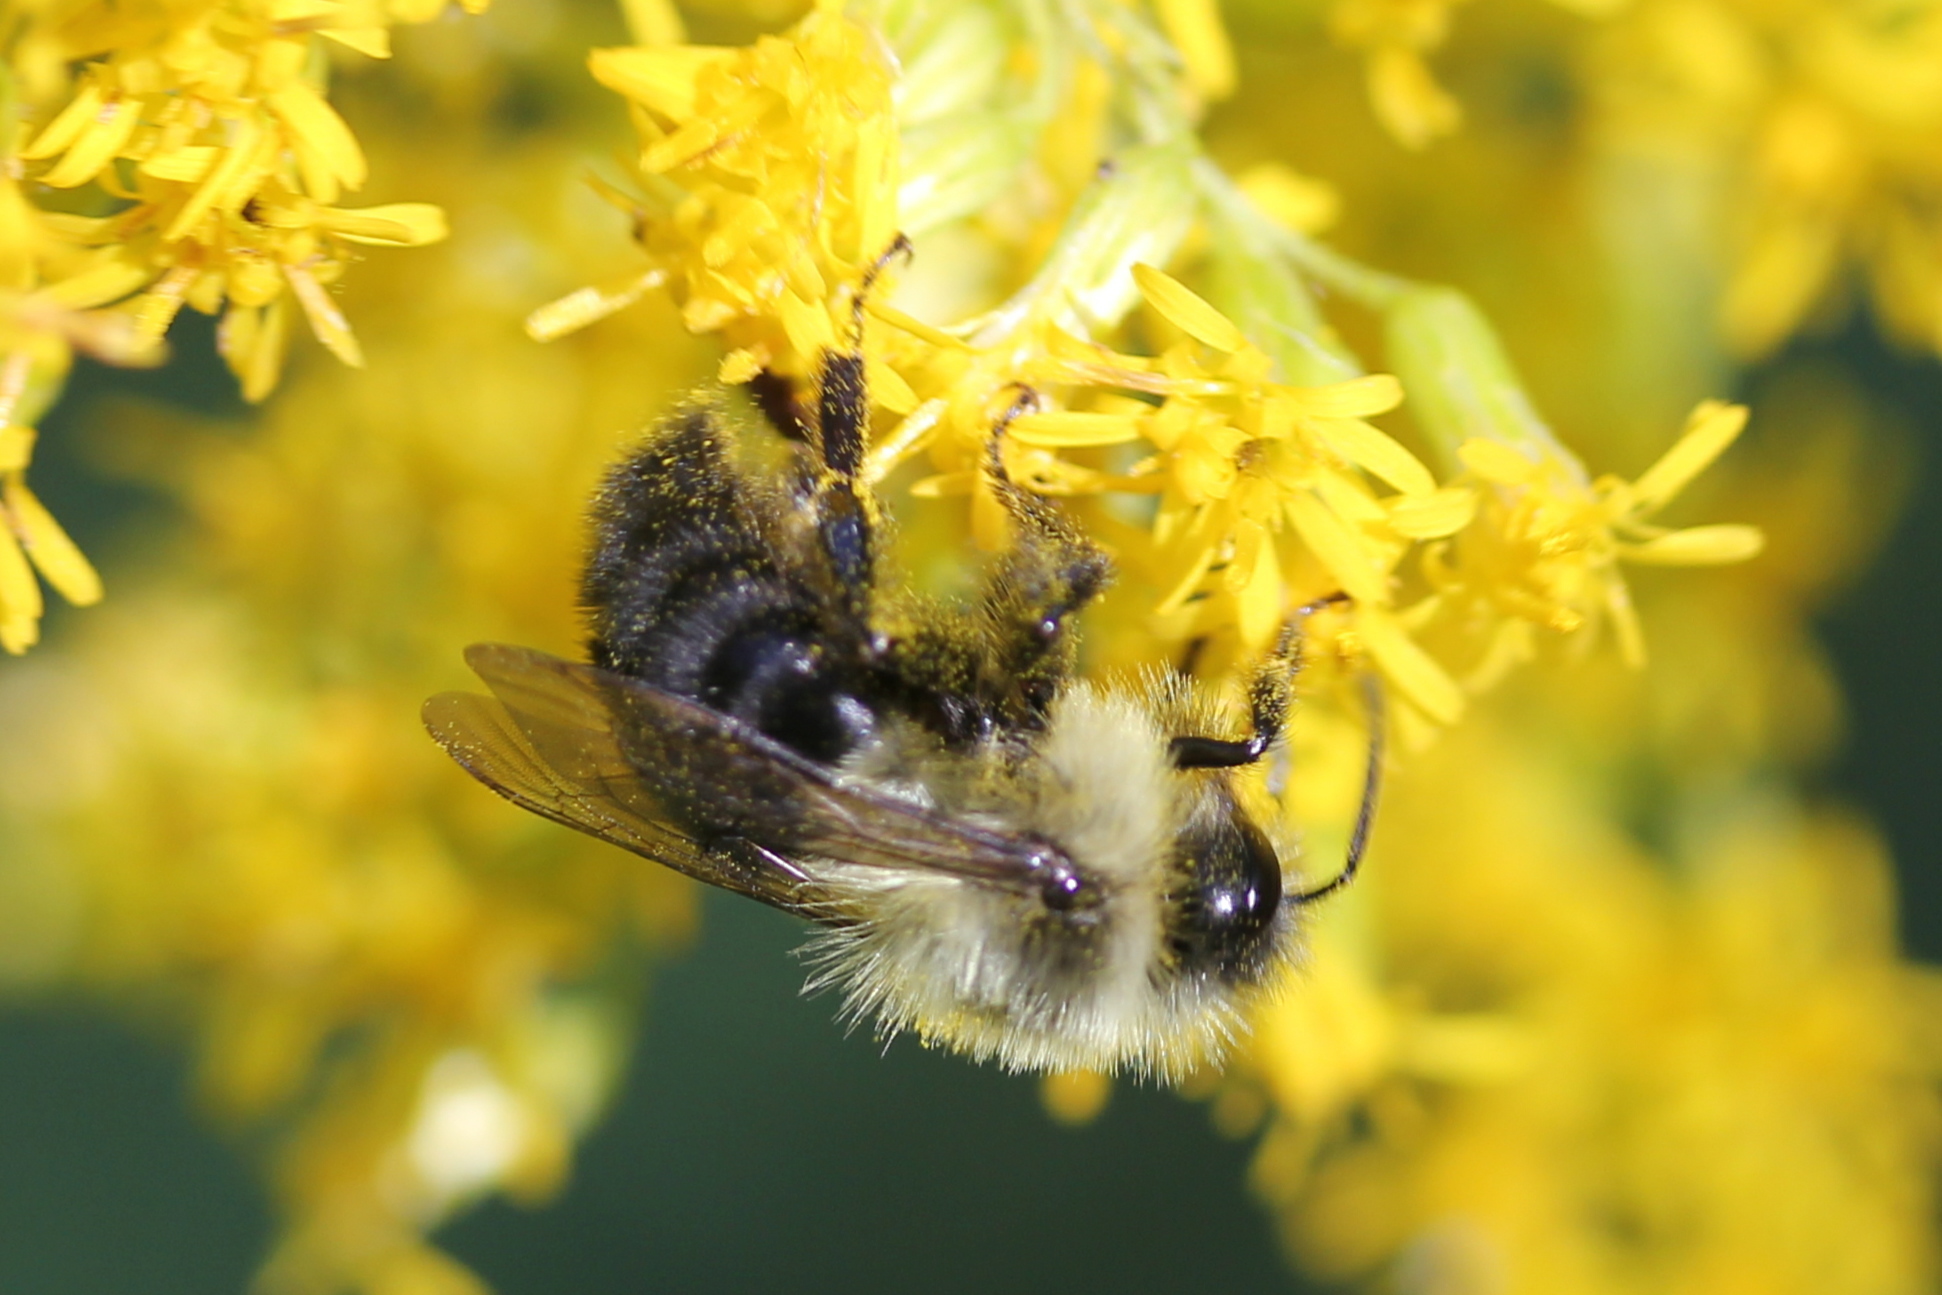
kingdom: Animalia
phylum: Arthropoda
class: Insecta
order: Hymenoptera
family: Apidae
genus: Bombus
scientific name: Bombus impatiens
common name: Common eastern bumble bee
